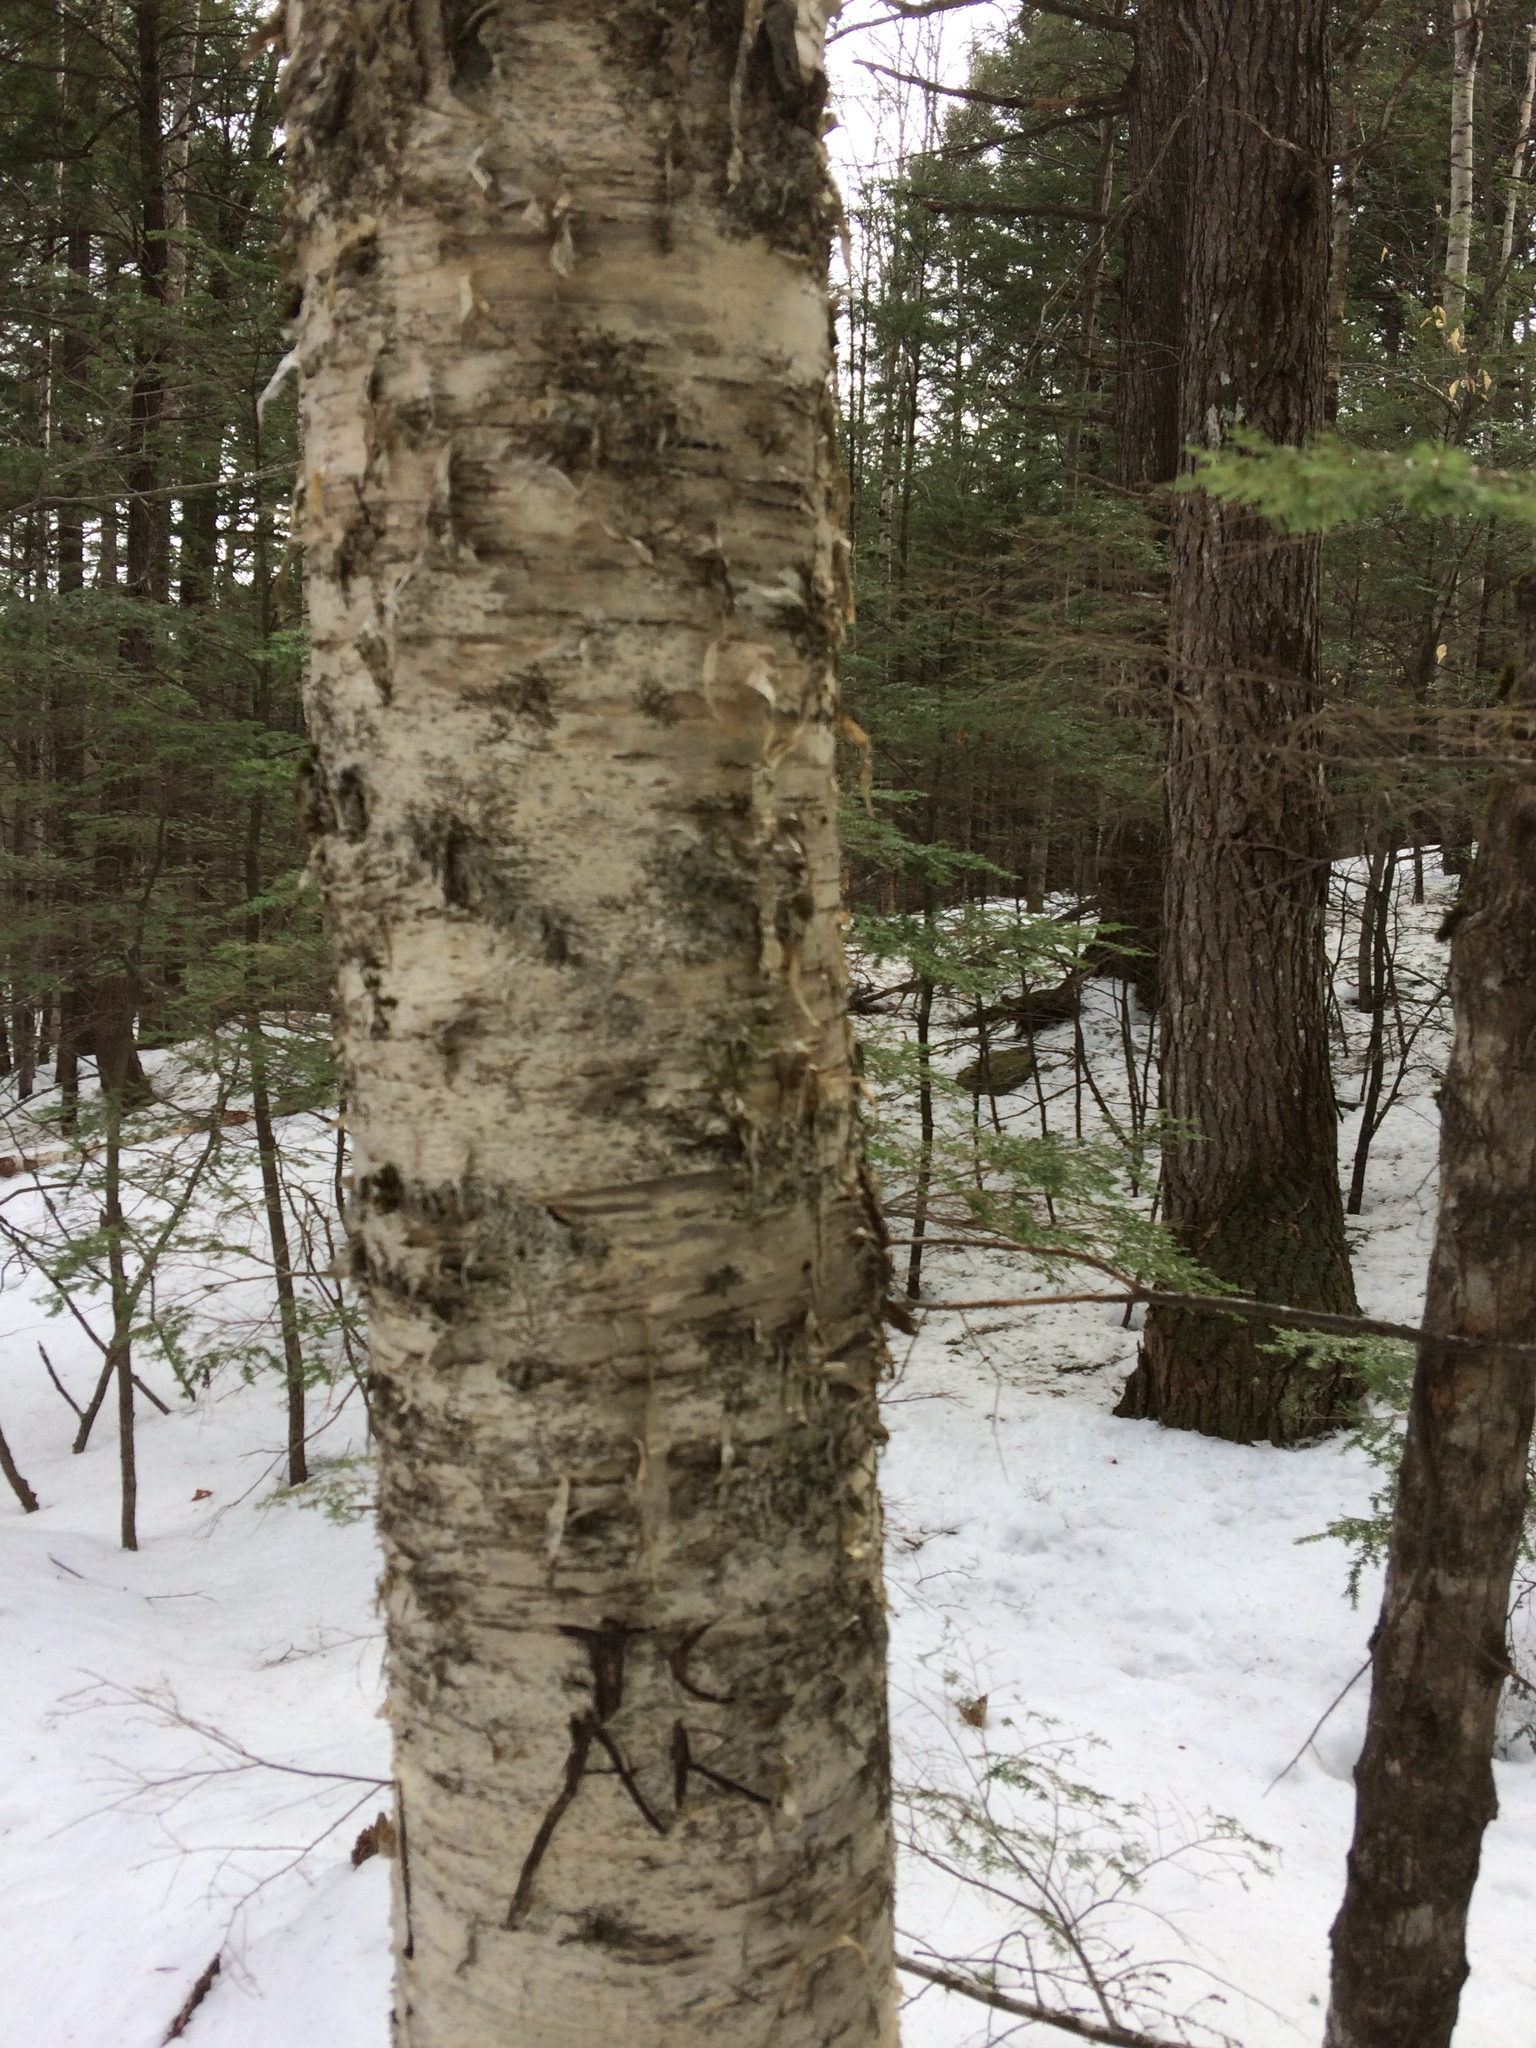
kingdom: Plantae
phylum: Tracheophyta
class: Magnoliopsida
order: Fagales
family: Betulaceae
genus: Betula
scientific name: Betula alleghaniensis
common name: Yellow birch
